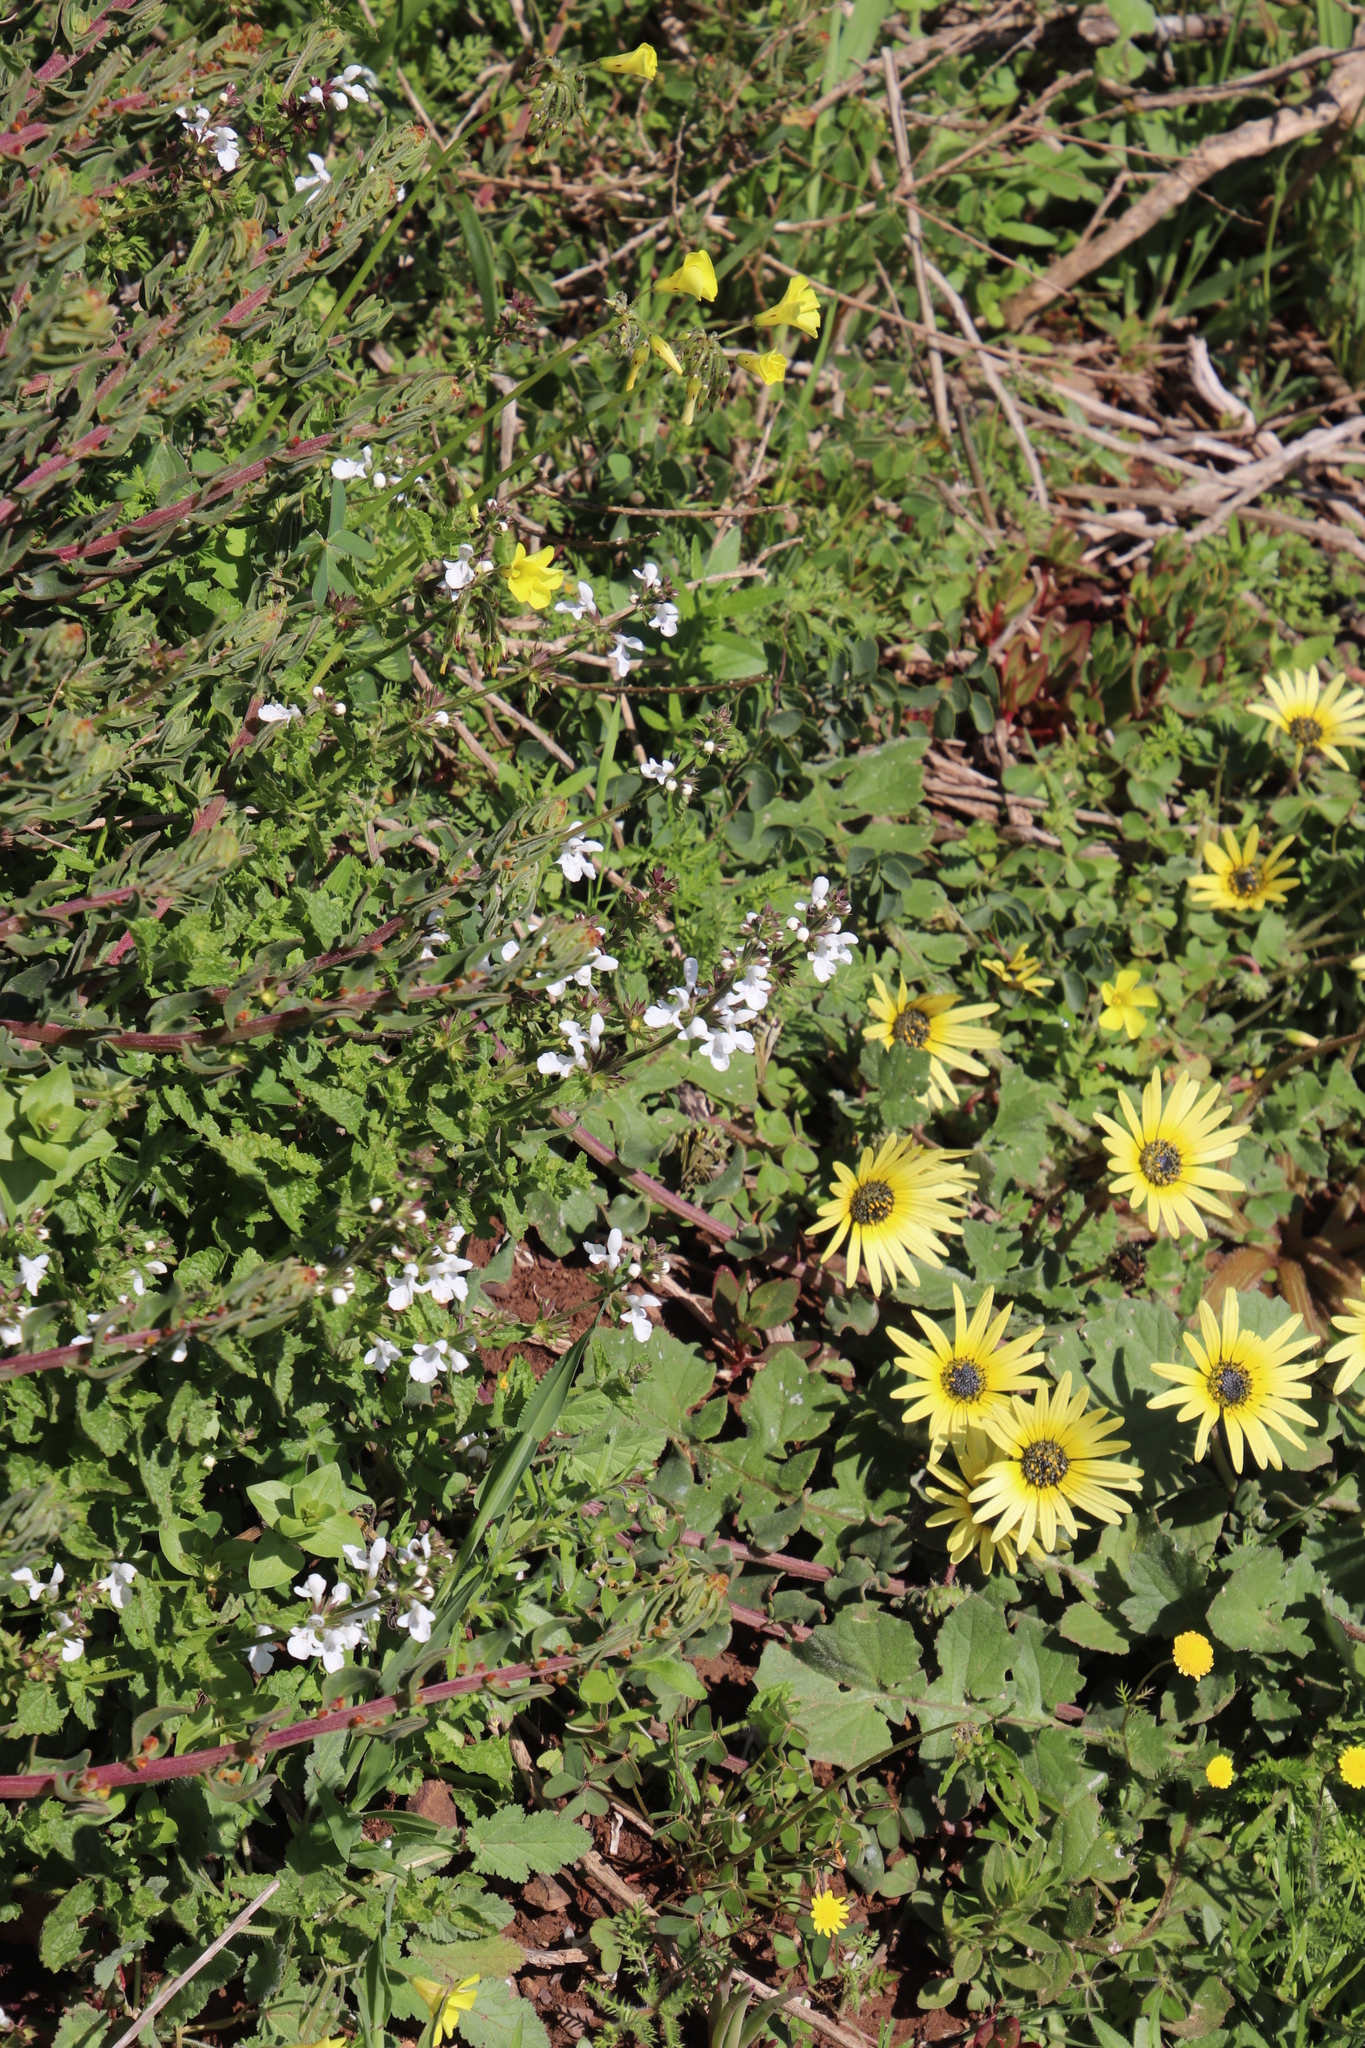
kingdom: Plantae
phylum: Tracheophyta
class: Magnoliopsida
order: Lamiales
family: Lamiaceae
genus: Stachys
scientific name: Stachys aethiopica
